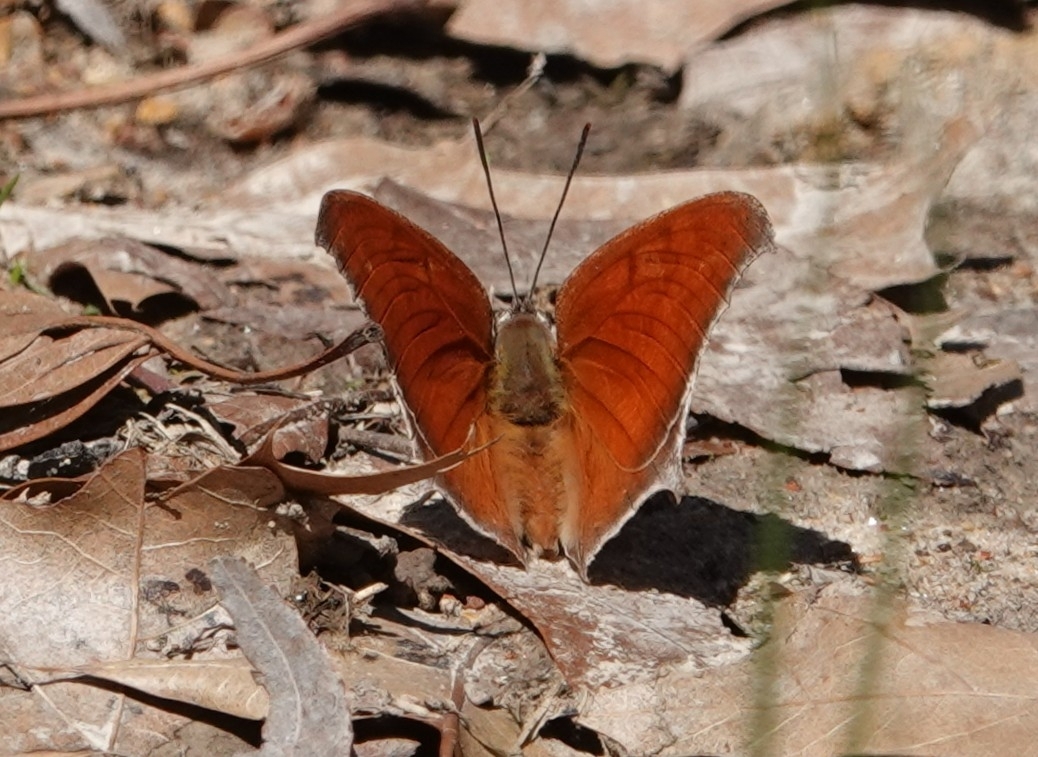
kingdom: Animalia
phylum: Arthropoda
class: Insecta
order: Lepidoptera
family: Nymphalidae
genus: Anaea
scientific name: Anaea andria
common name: Goatweed leafwing
